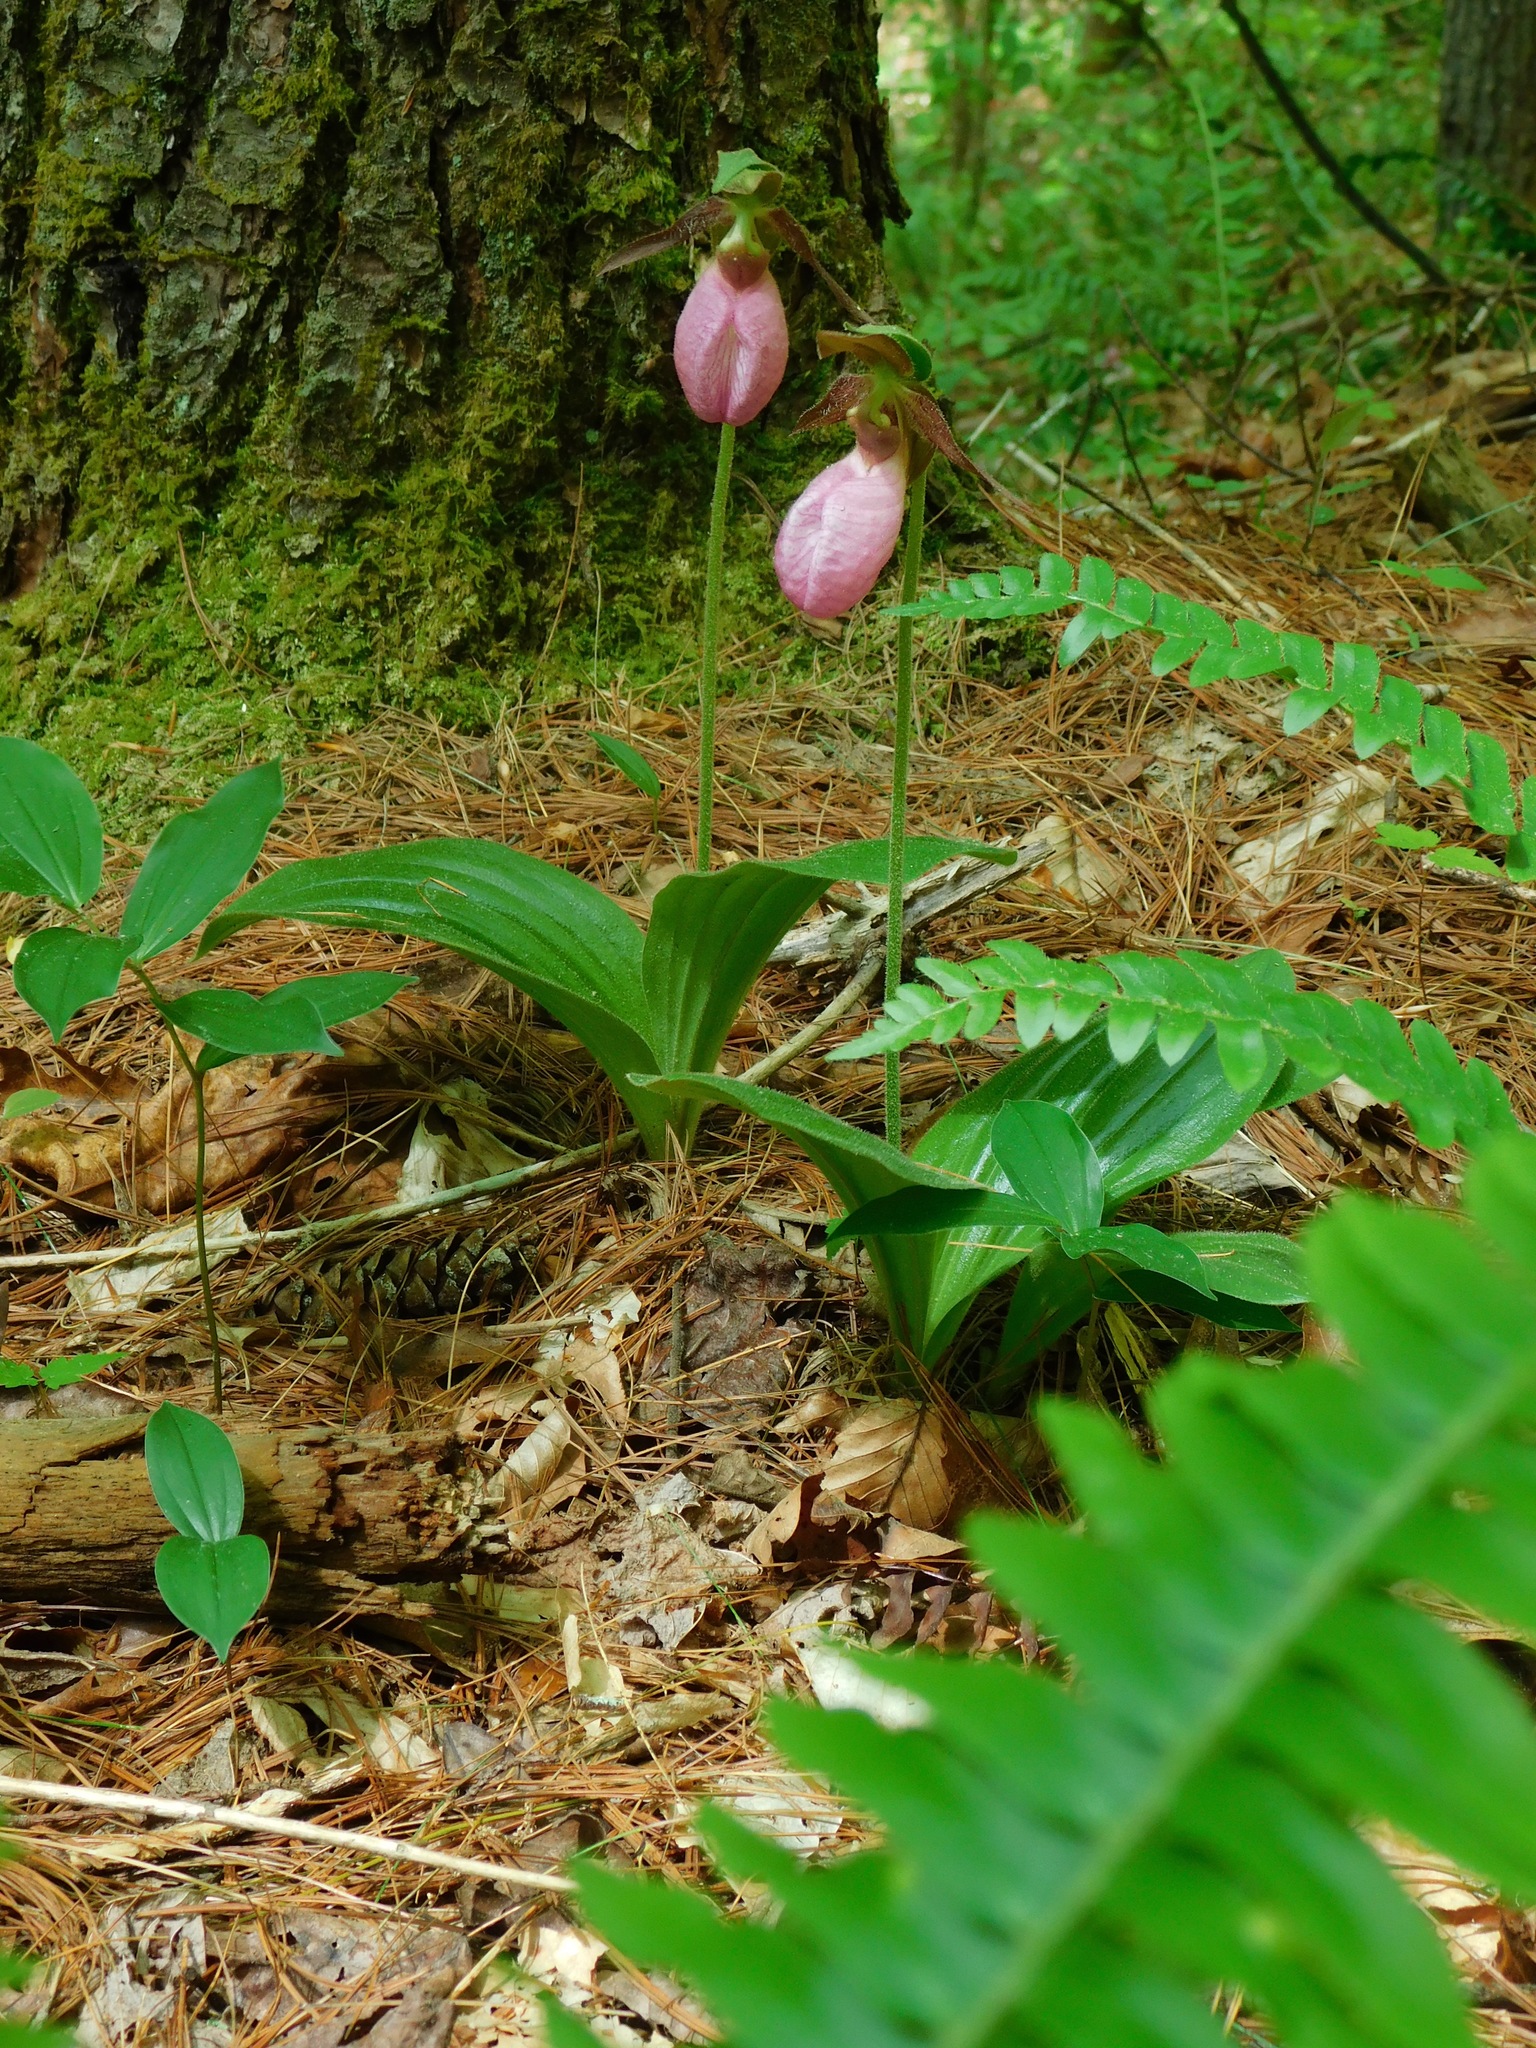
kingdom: Plantae
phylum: Tracheophyta
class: Liliopsida
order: Asparagales
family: Orchidaceae
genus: Cypripedium
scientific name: Cypripedium acaule
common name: Pink lady's-slipper
